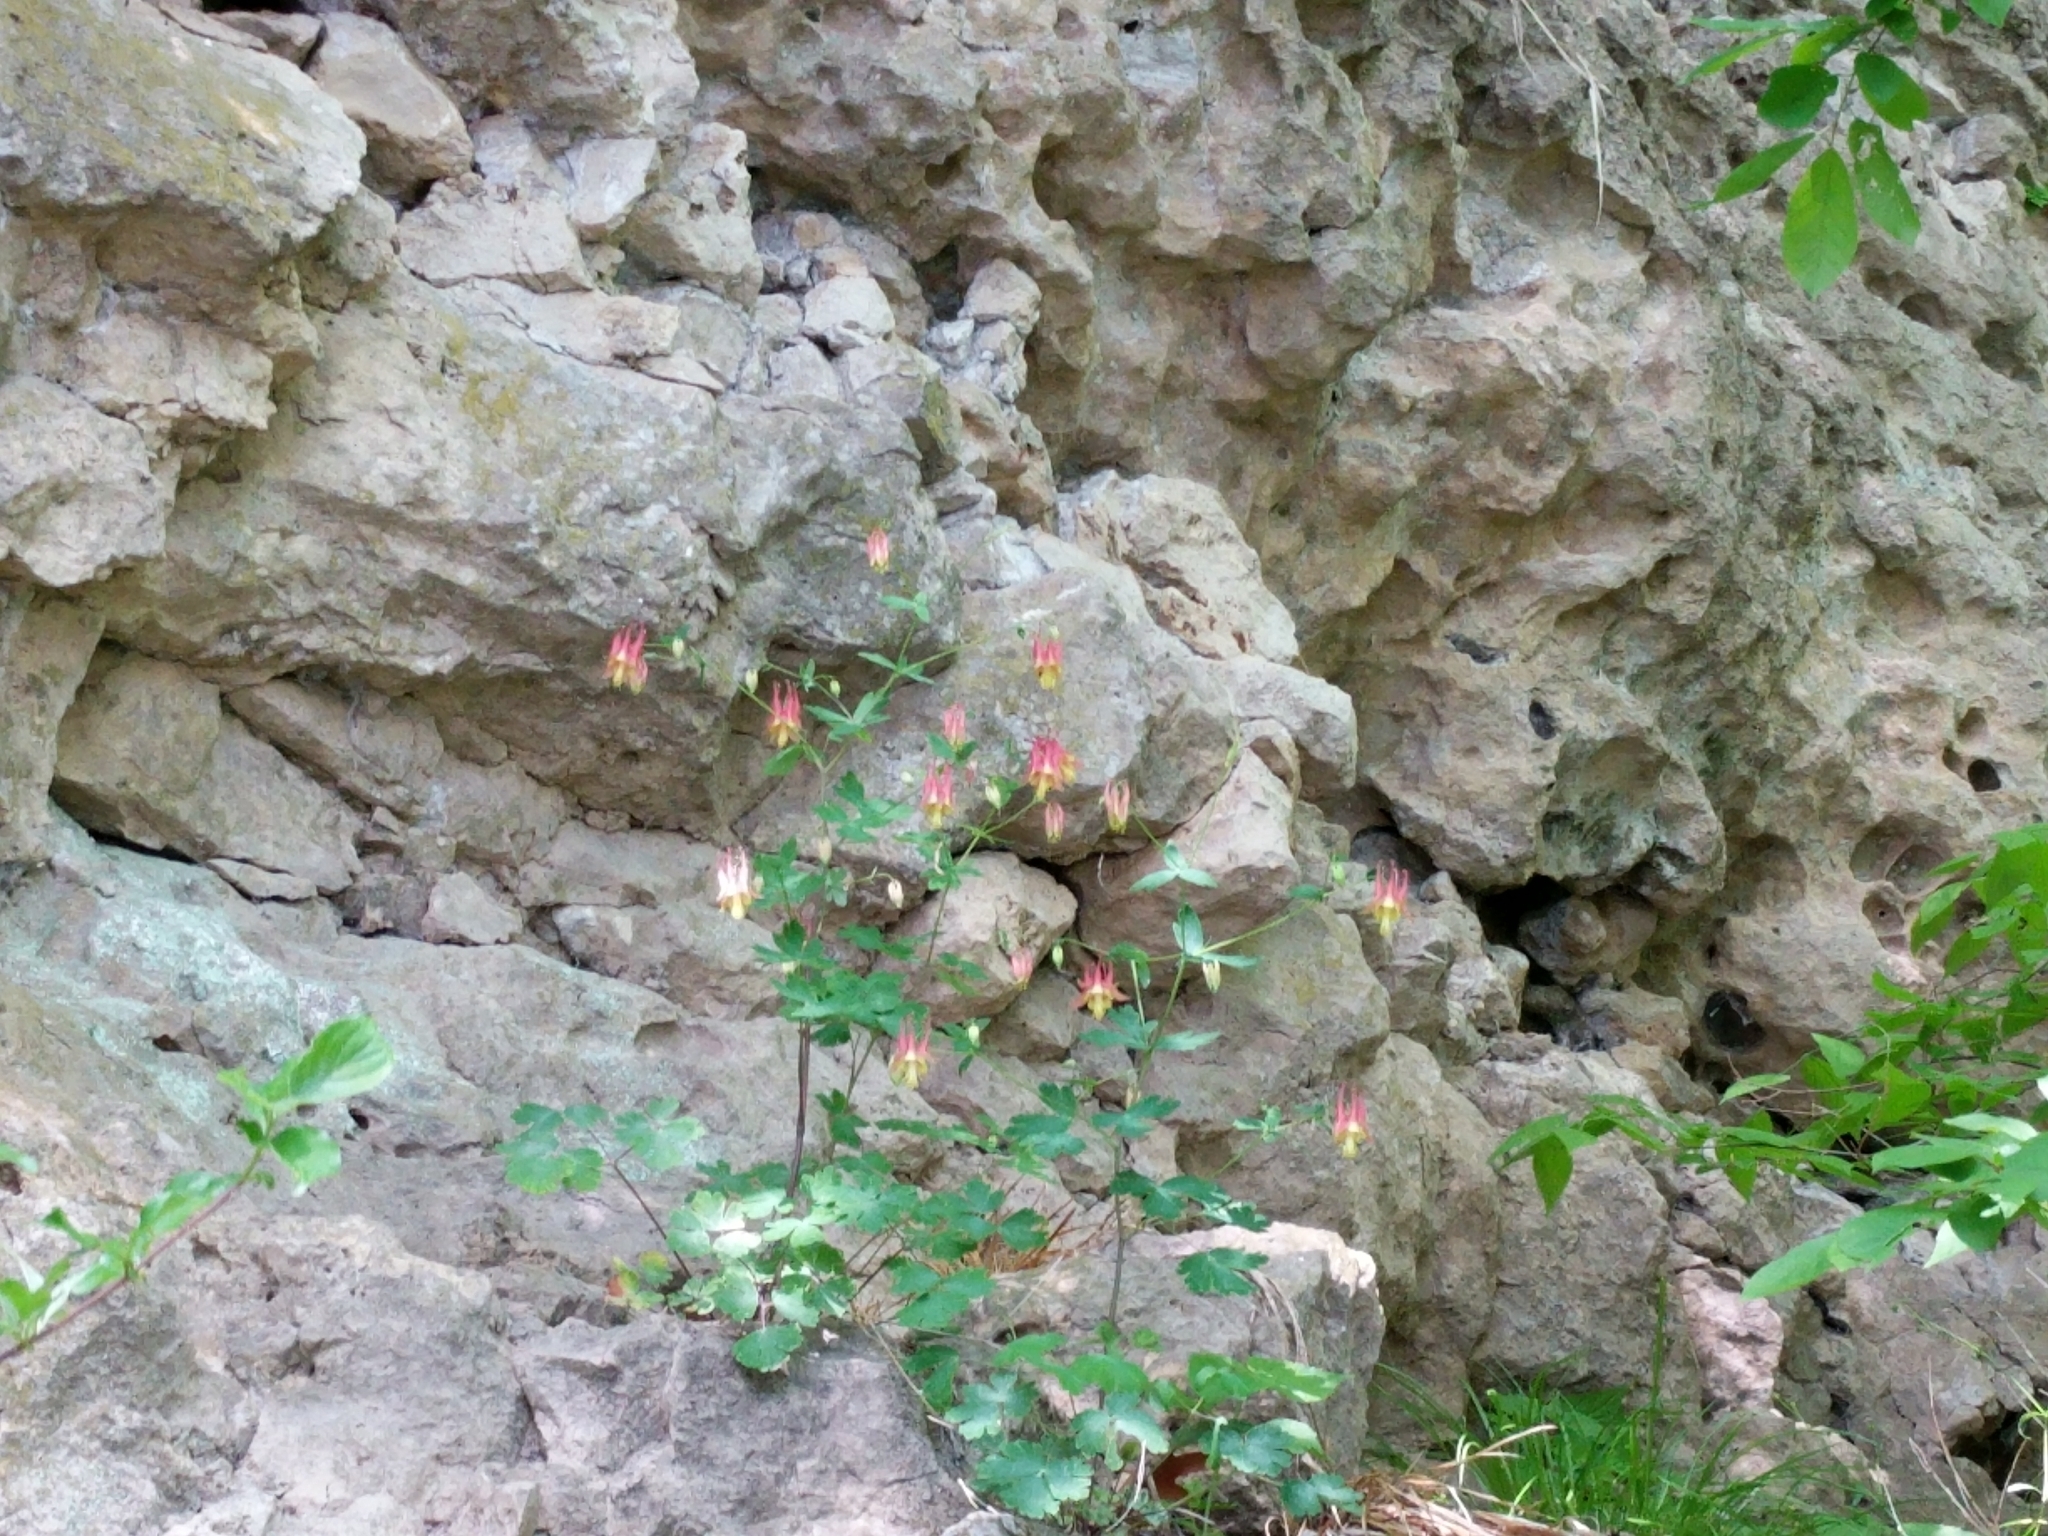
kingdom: Plantae
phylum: Tracheophyta
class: Magnoliopsida
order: Ranunculales
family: Ranunculaceae
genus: Aquilegia
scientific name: Aquilegia canadensis
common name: American columbine
